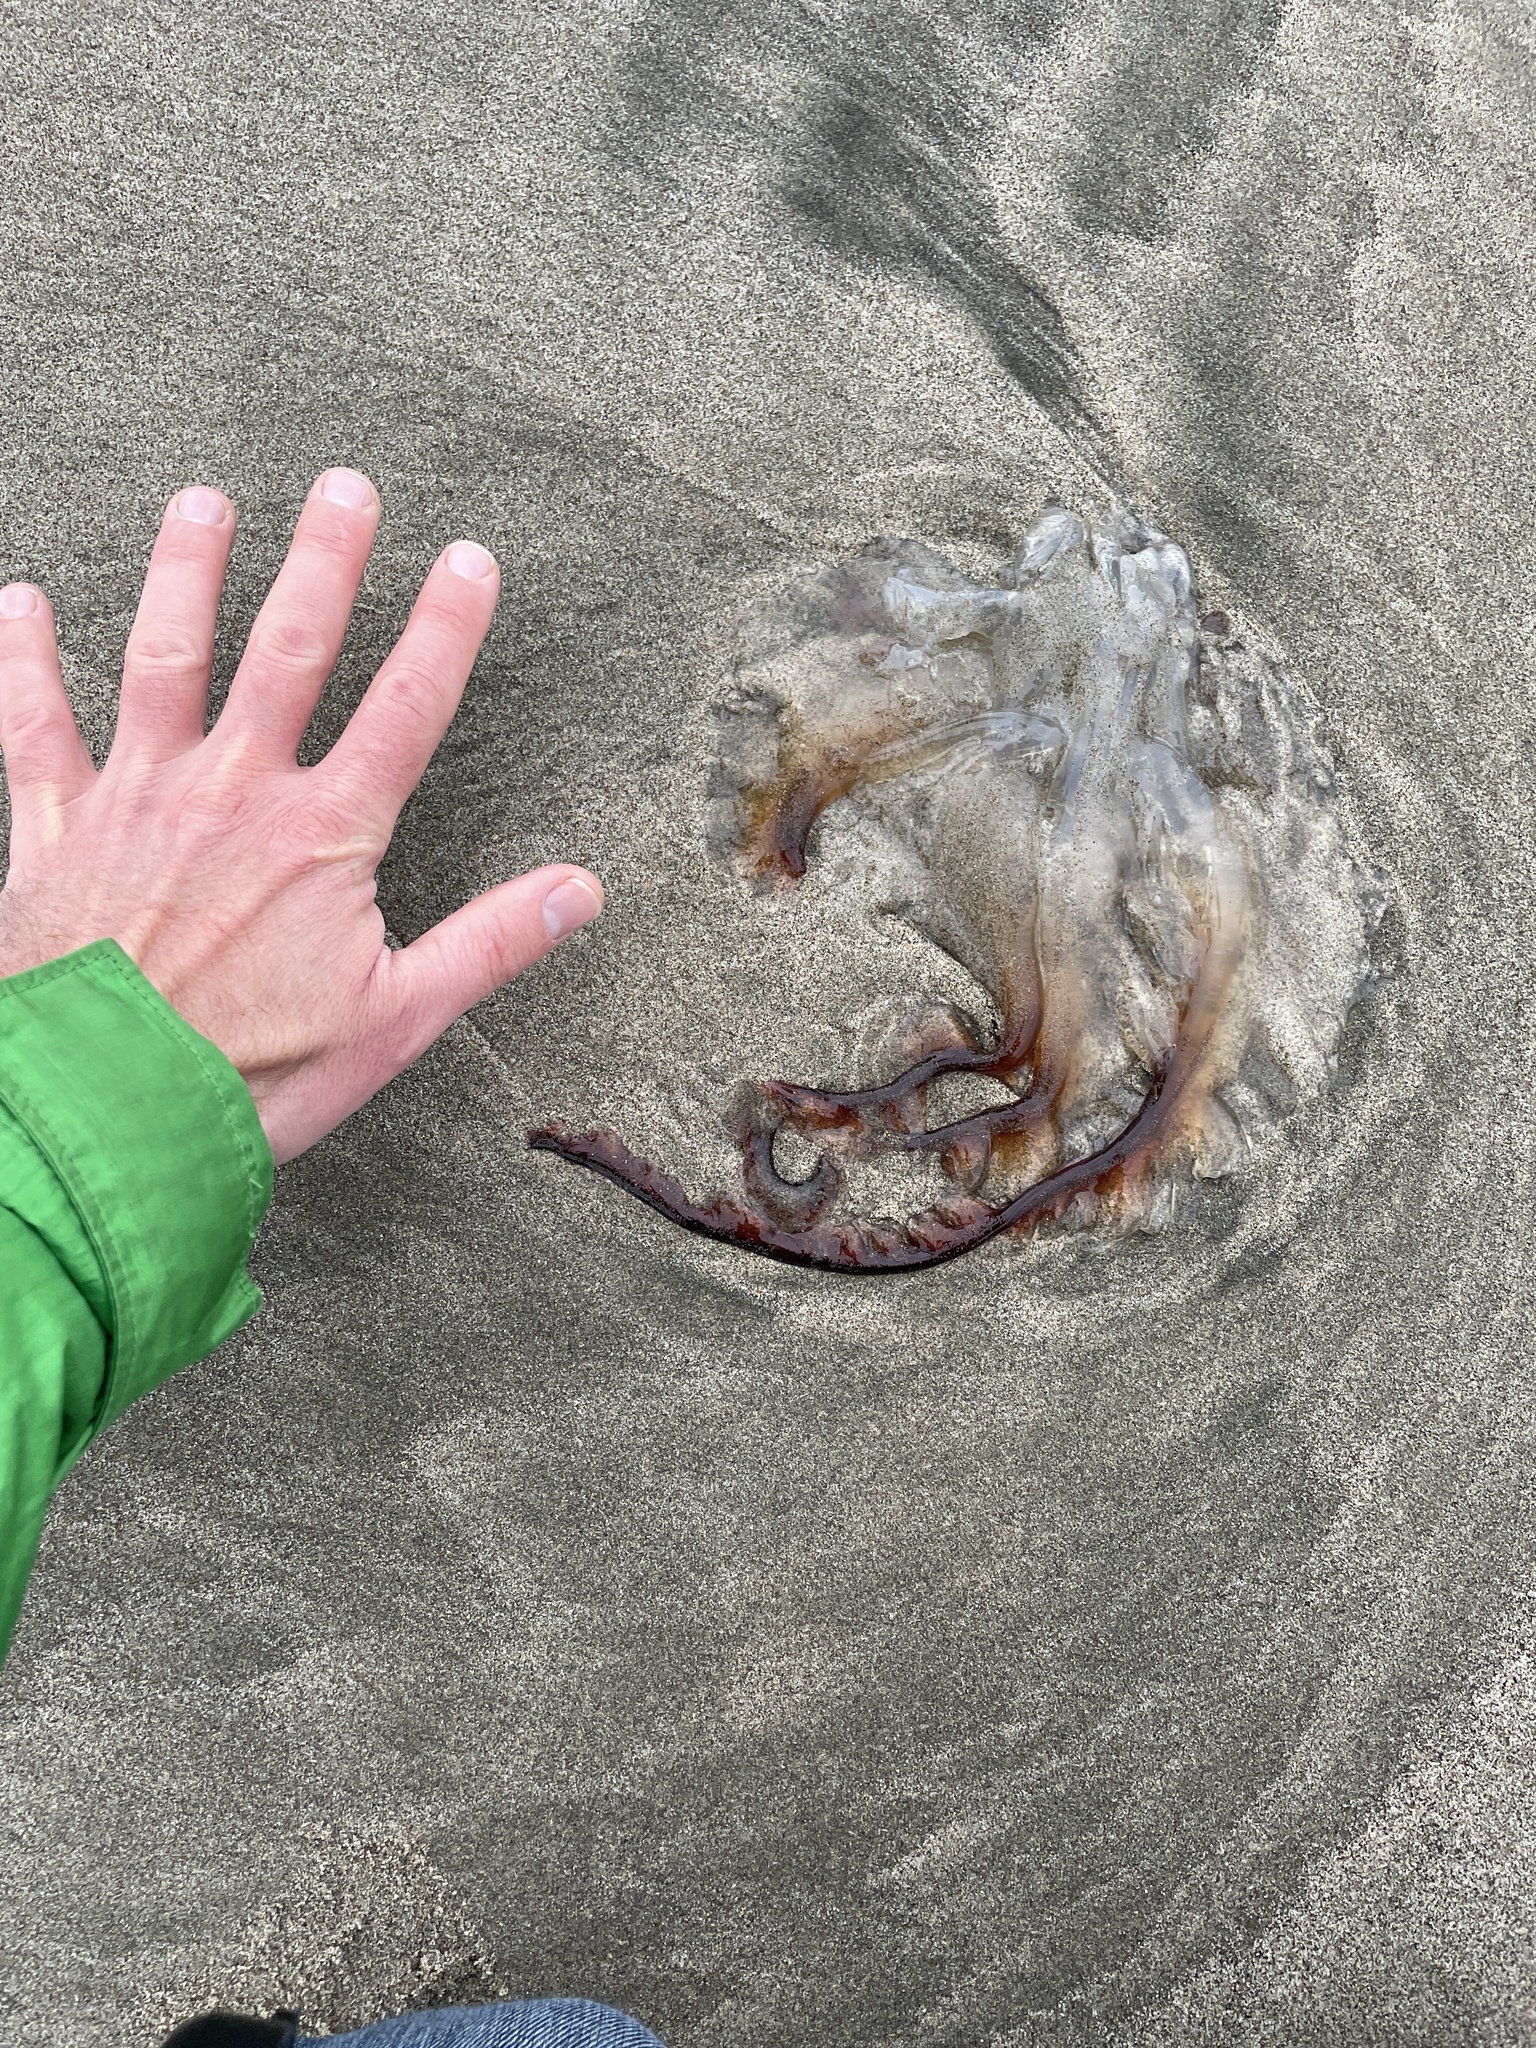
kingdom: Animalia
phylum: Cnidaria
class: Scyphozoa
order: Semaeostomeae
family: Pelagiidae
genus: Chrysaora
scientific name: Chrysaora fuscescens
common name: Sea nettle
